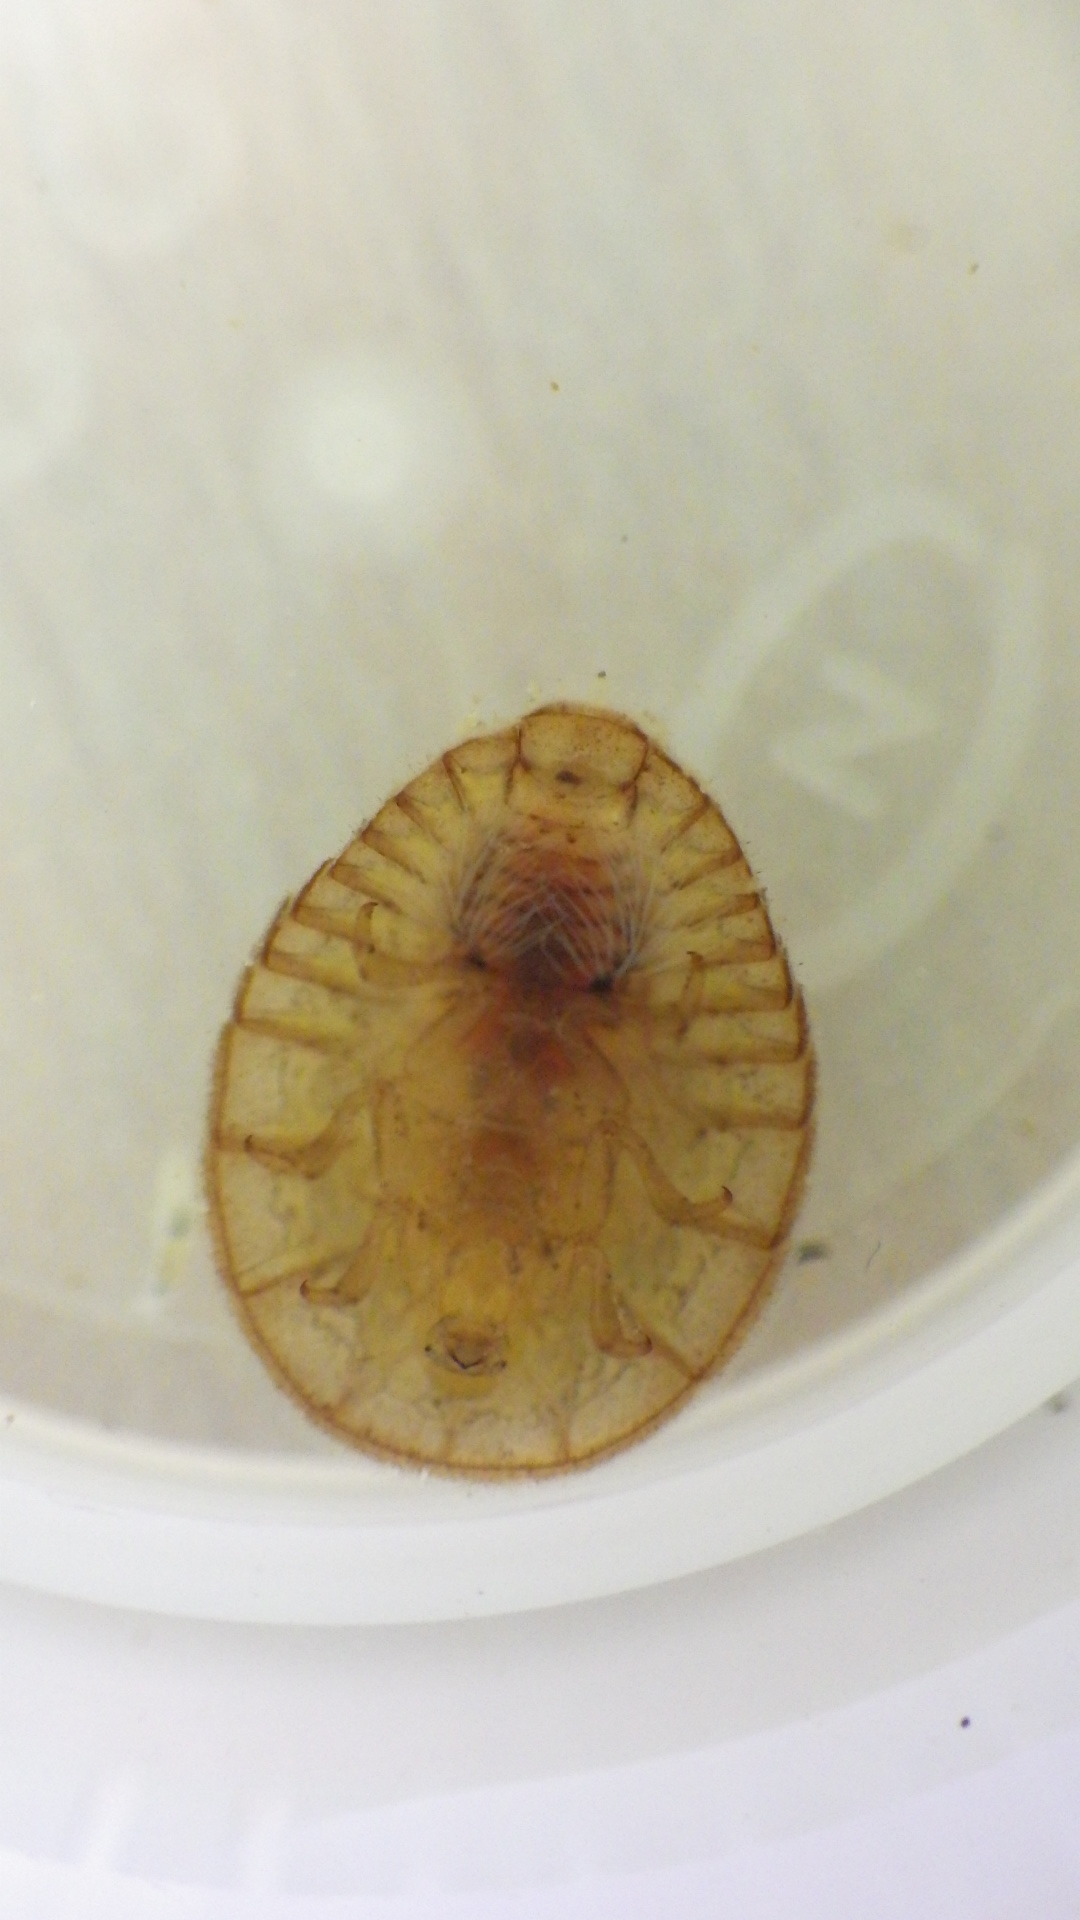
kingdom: Animalia
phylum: Arthropoda
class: Insecta
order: Coleoptera
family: Psephenidae
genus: Psephenus
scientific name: Psephenus herricki
